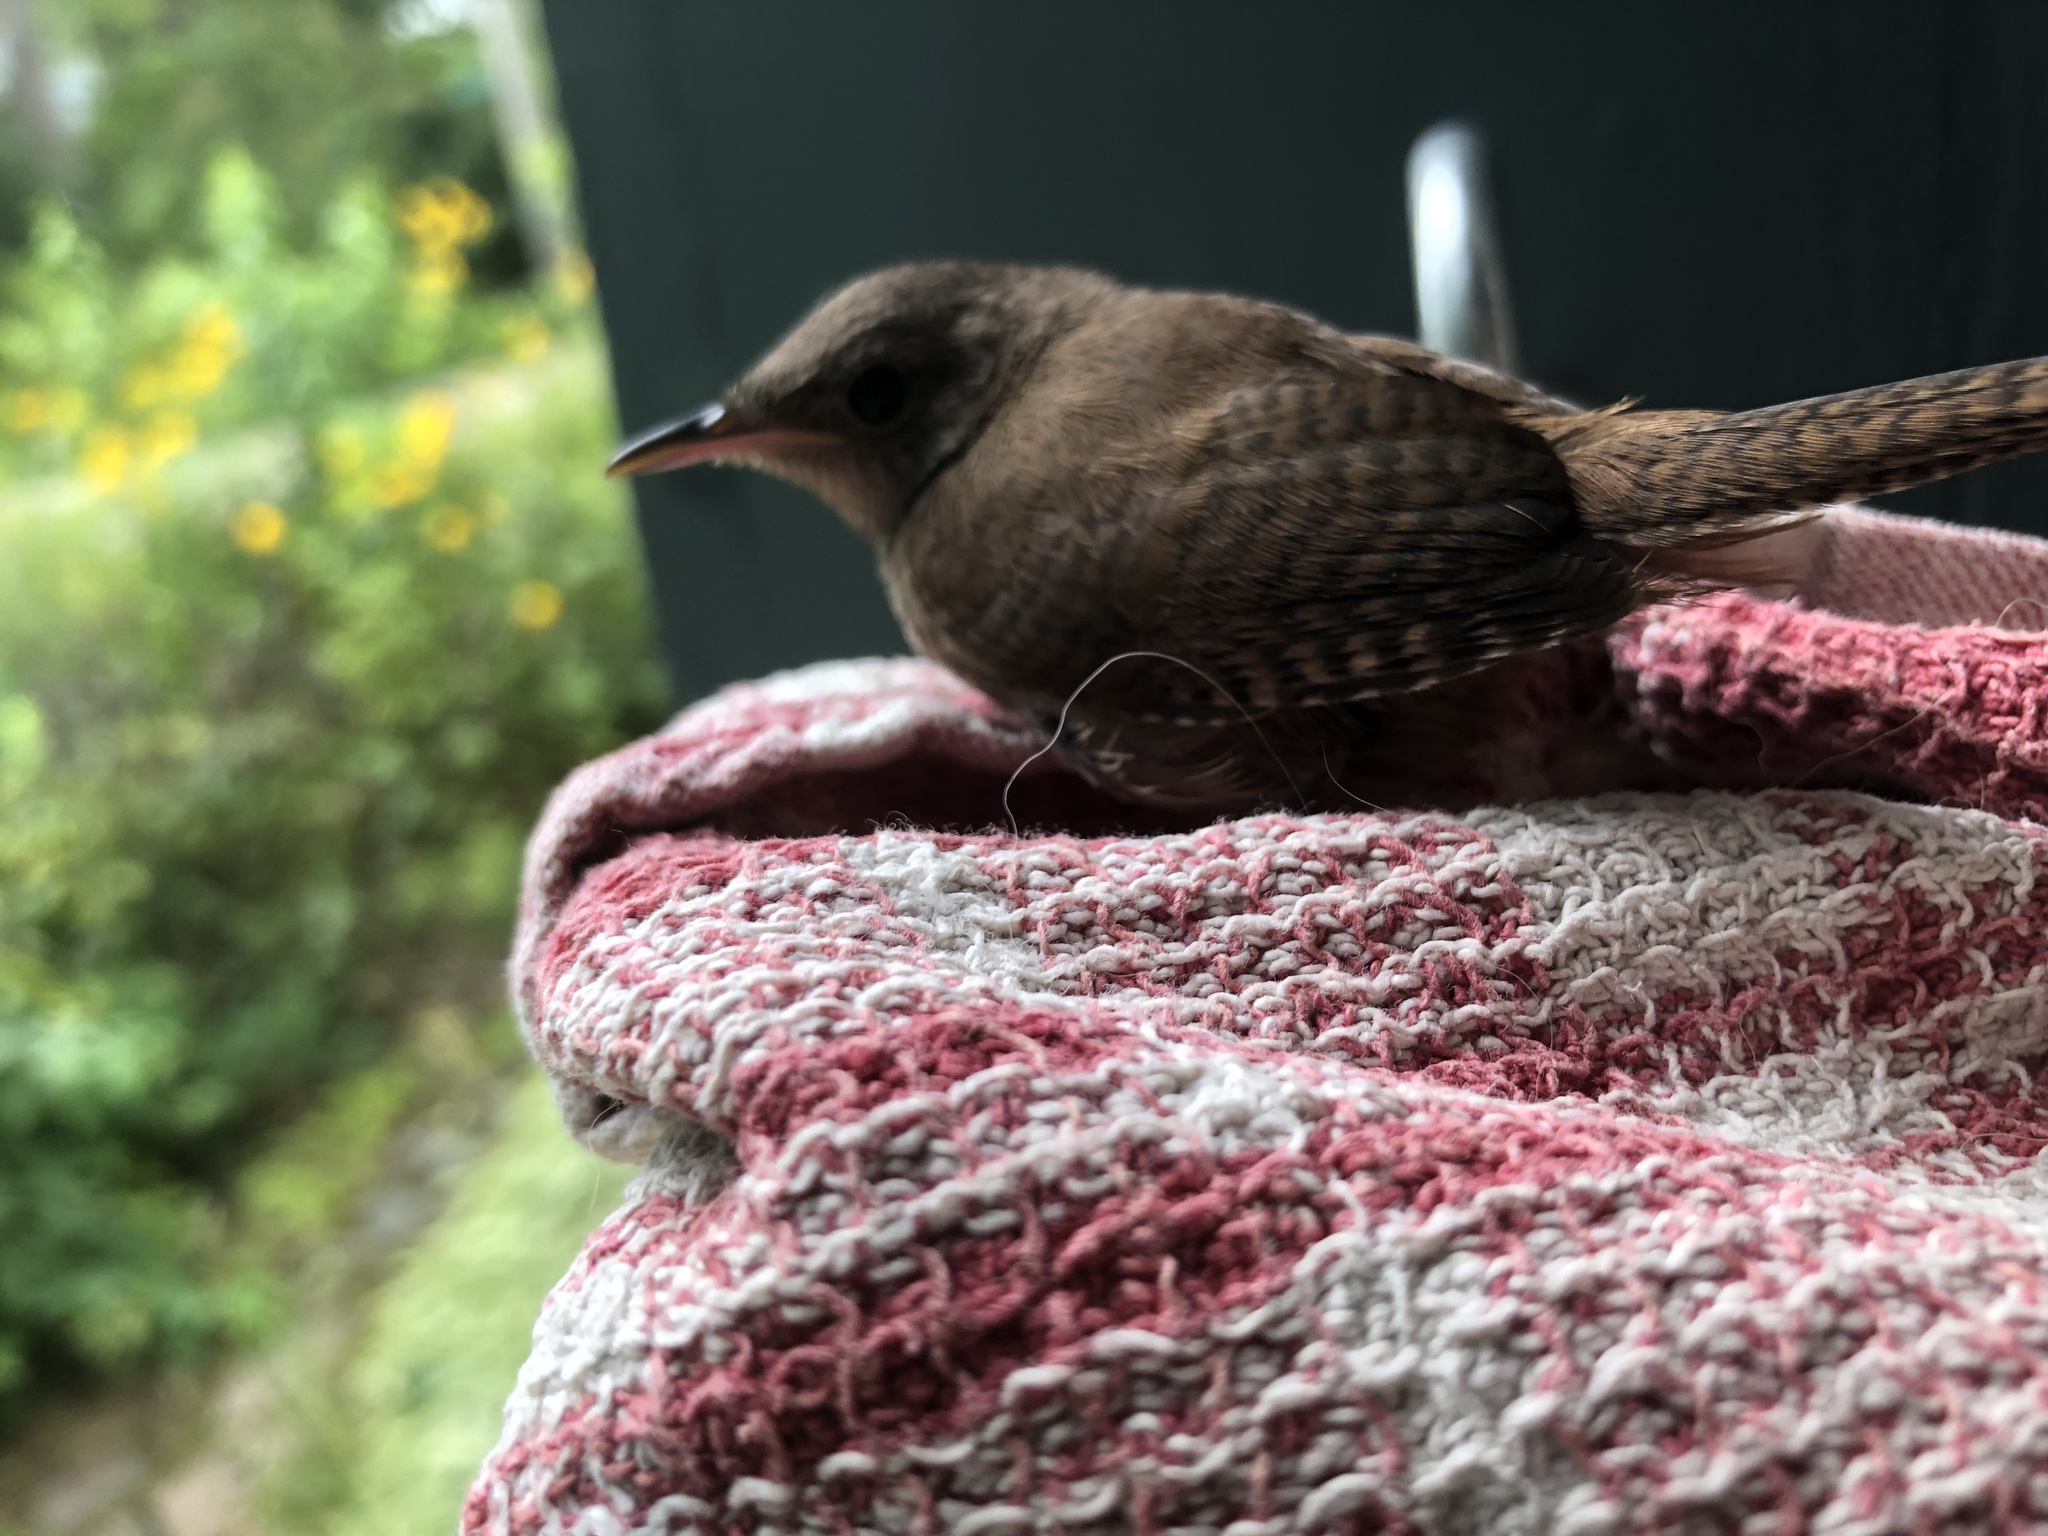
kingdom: Animalia
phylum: Chordata
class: Aves
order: Passeriformes
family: Troglodytidae
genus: Troglodytes
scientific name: Troglodytes aedon
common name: House wren
